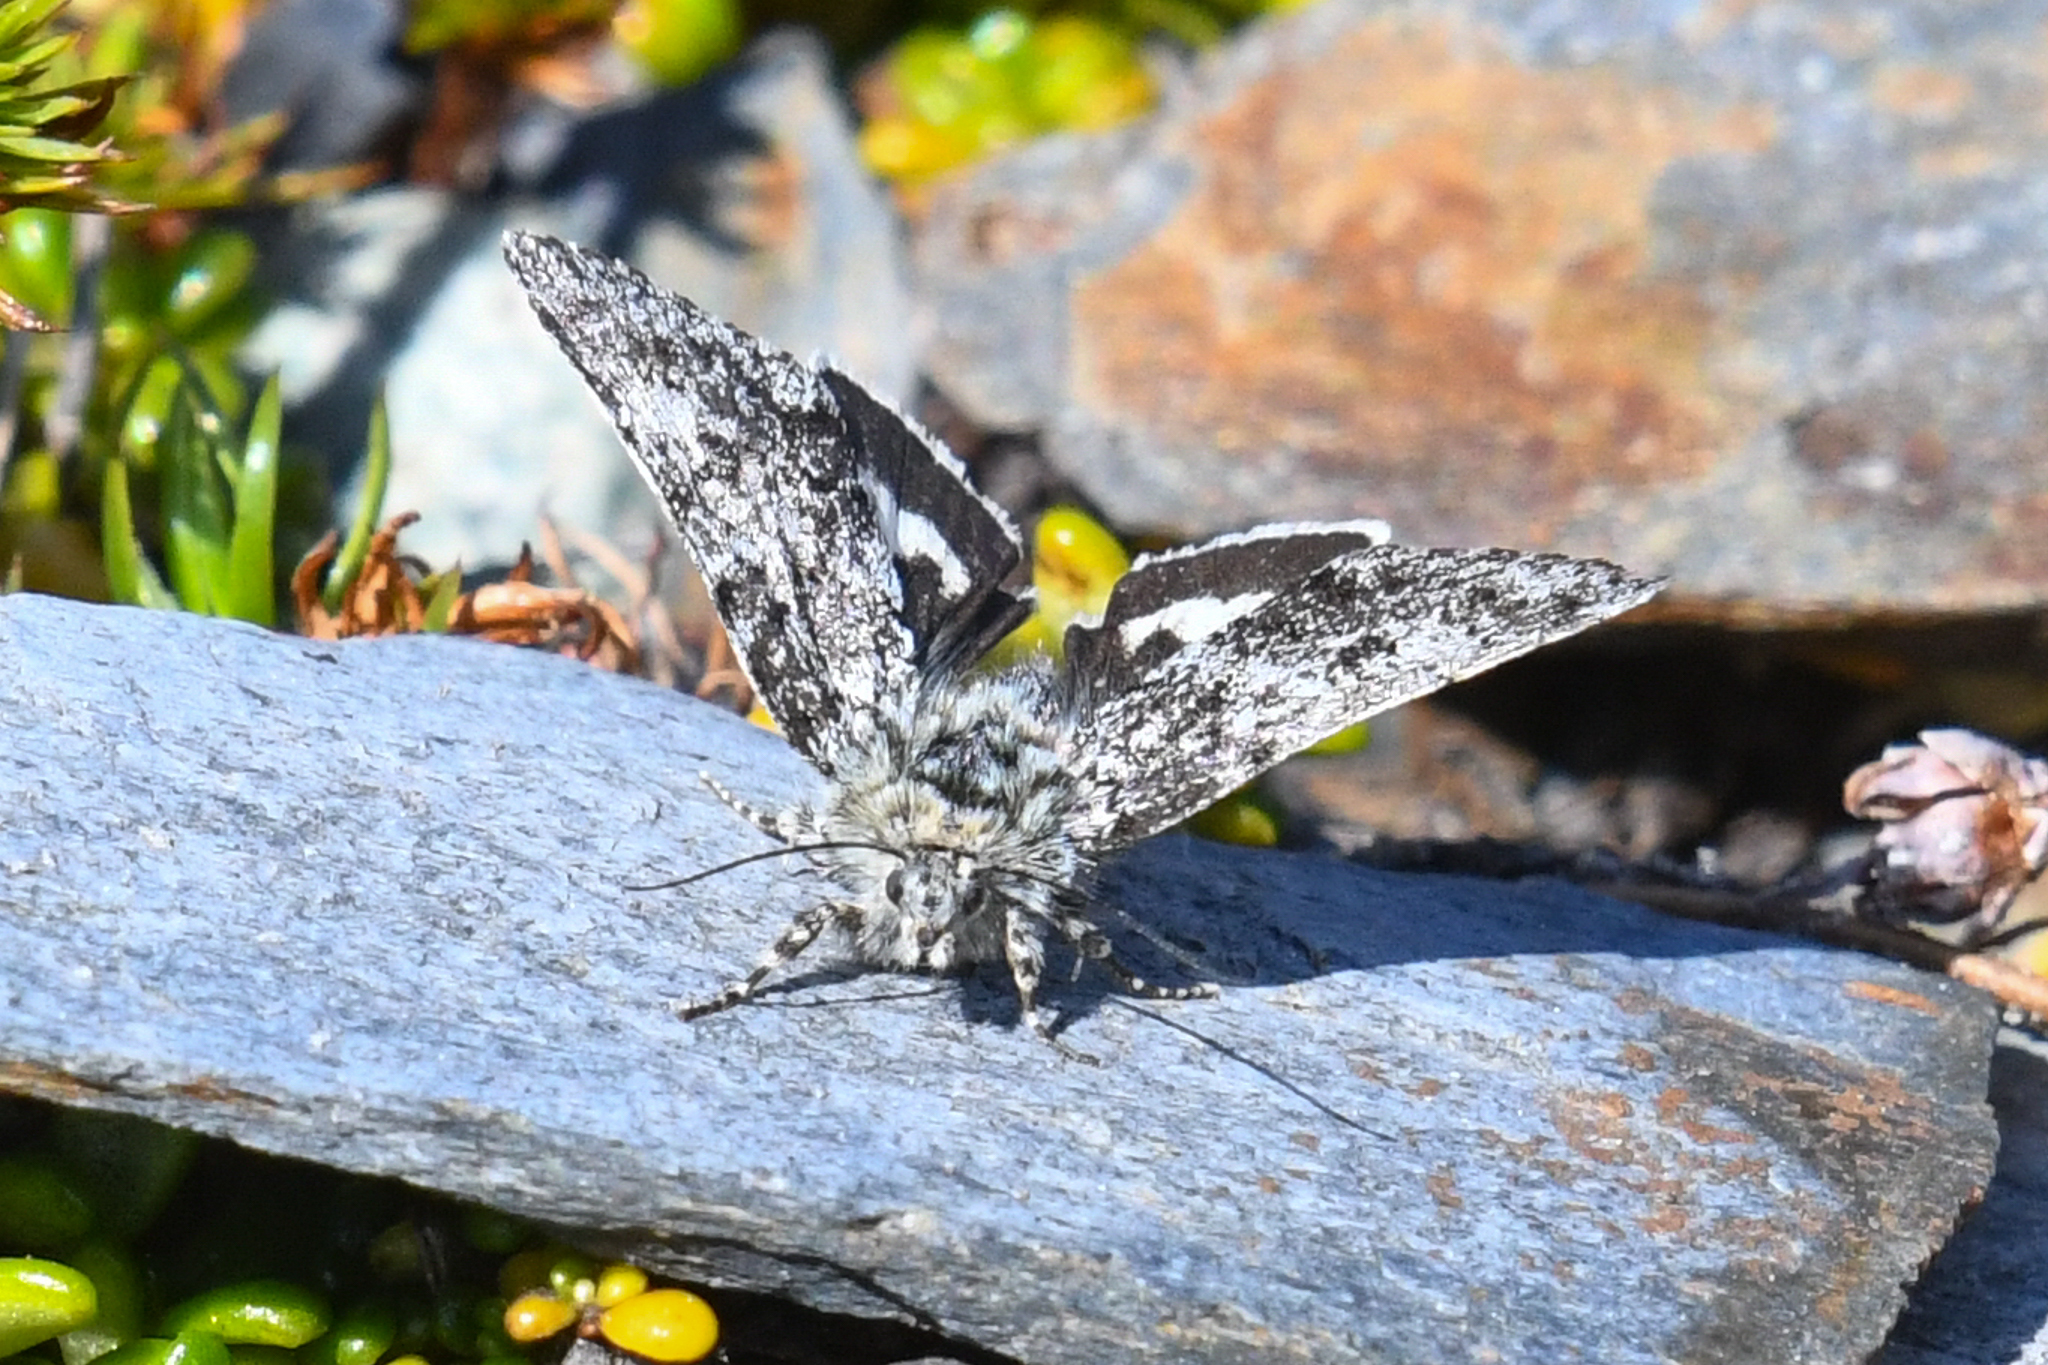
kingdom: Animalia
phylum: Arthropoda
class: Insecta
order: Lepidoptera
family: Noctuidae
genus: Anarta
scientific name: Anarta nigrolunata
